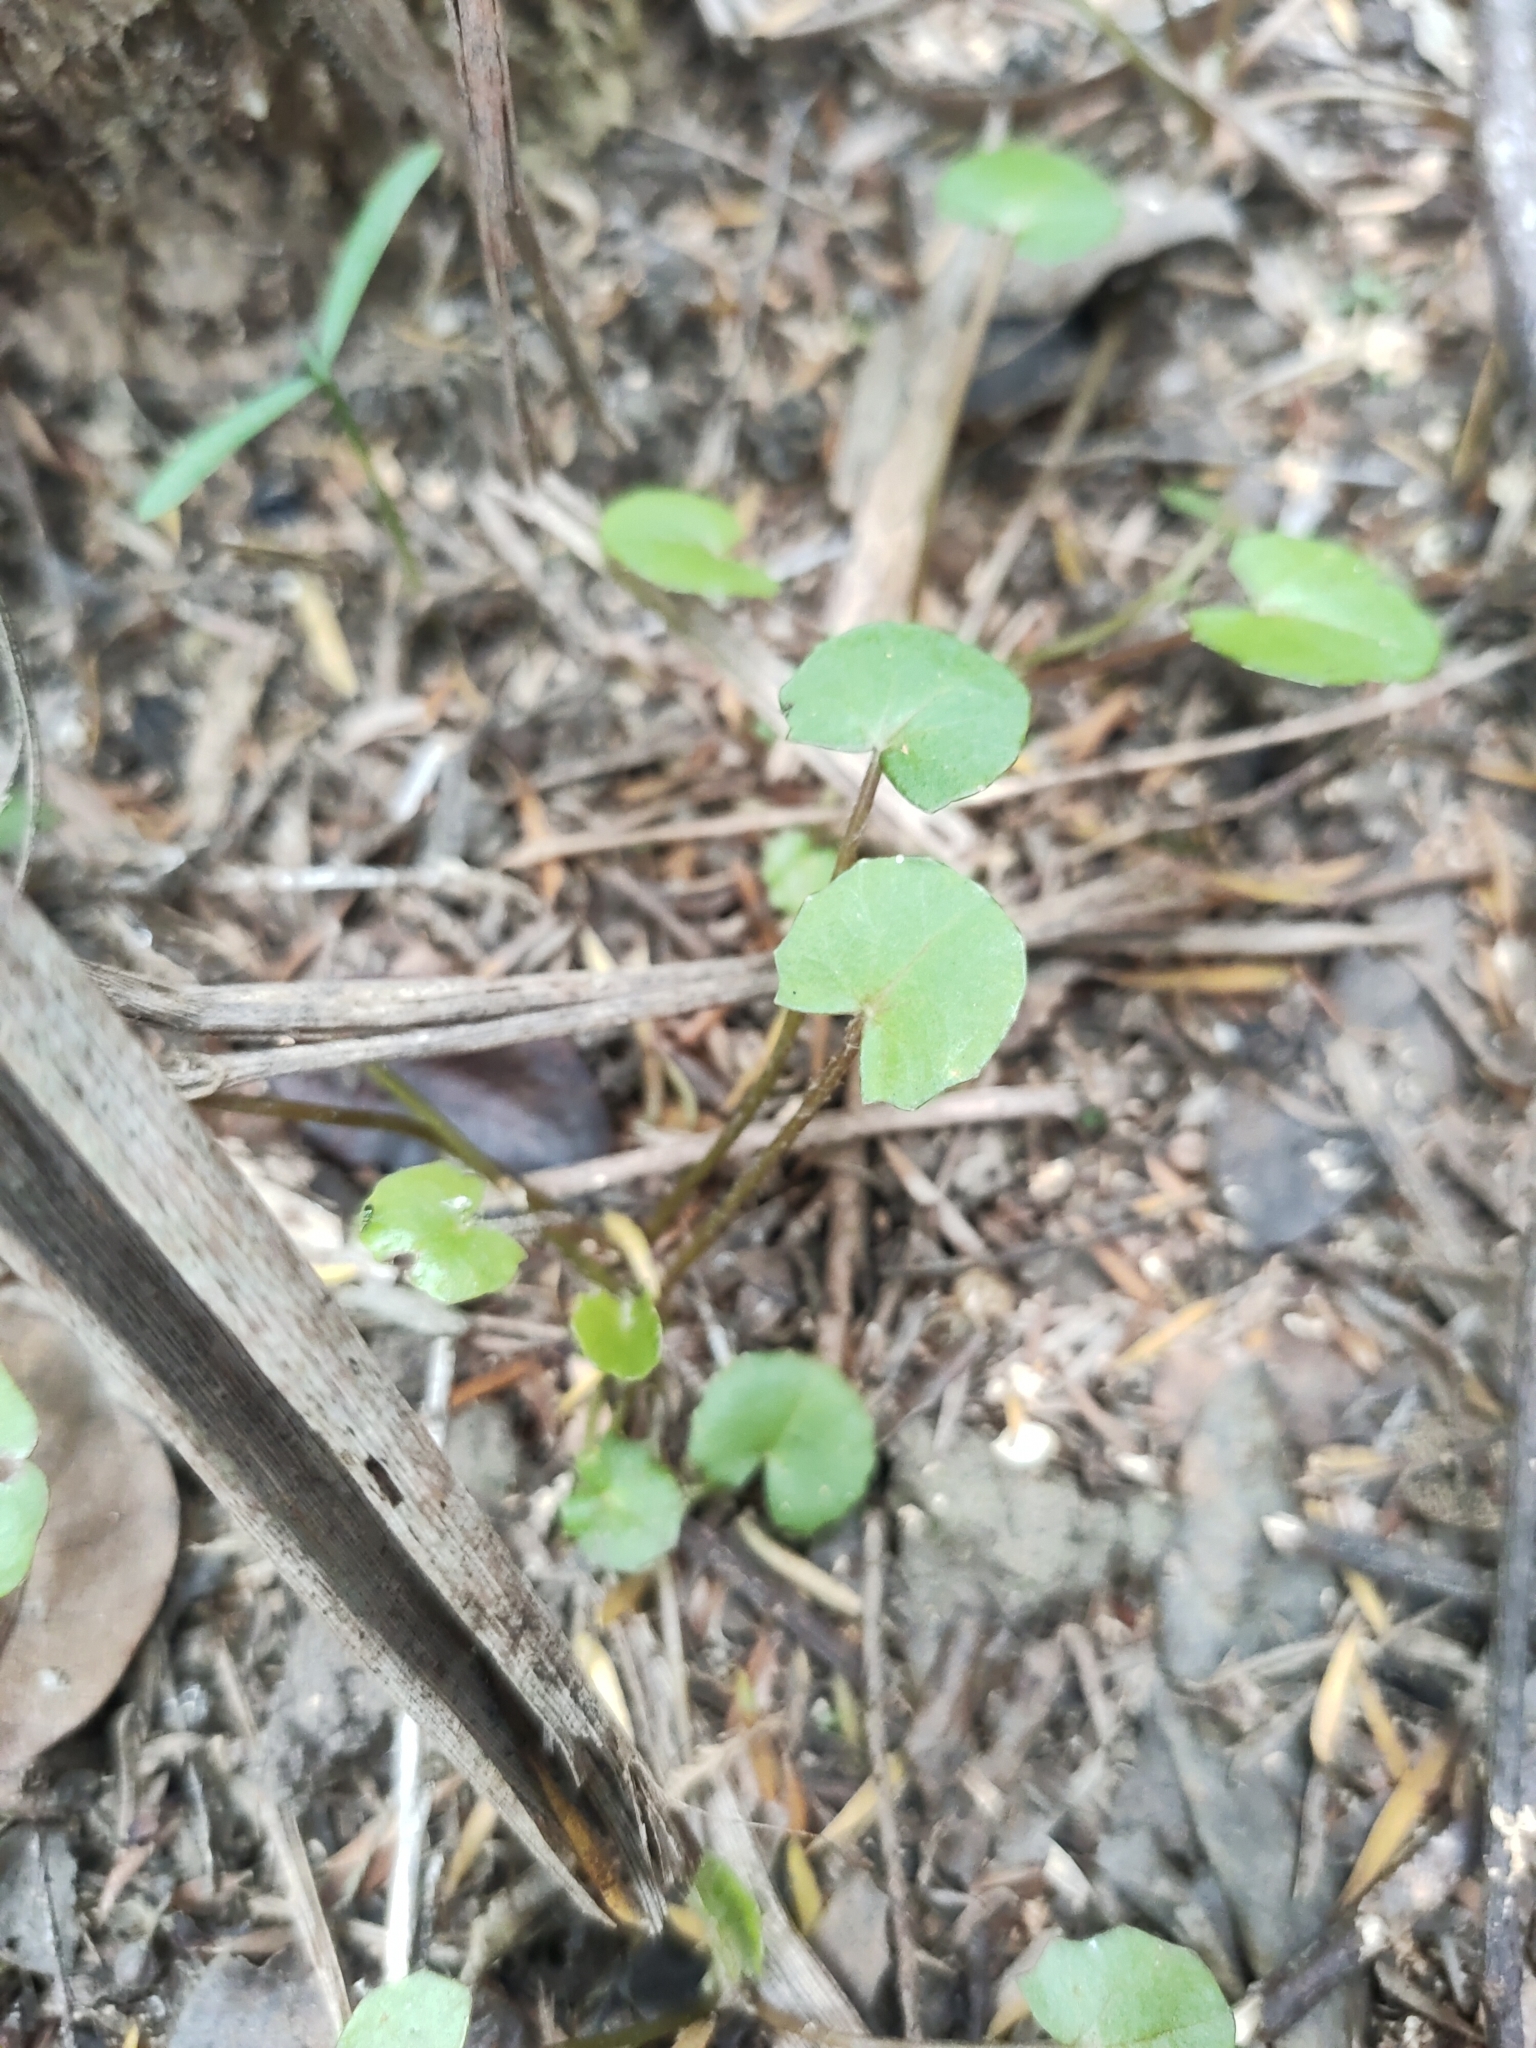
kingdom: Plantae
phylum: Tracheophyta
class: Magnoliopsida
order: Apiales
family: Apiaceae
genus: Centella
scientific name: Centella uniflora
